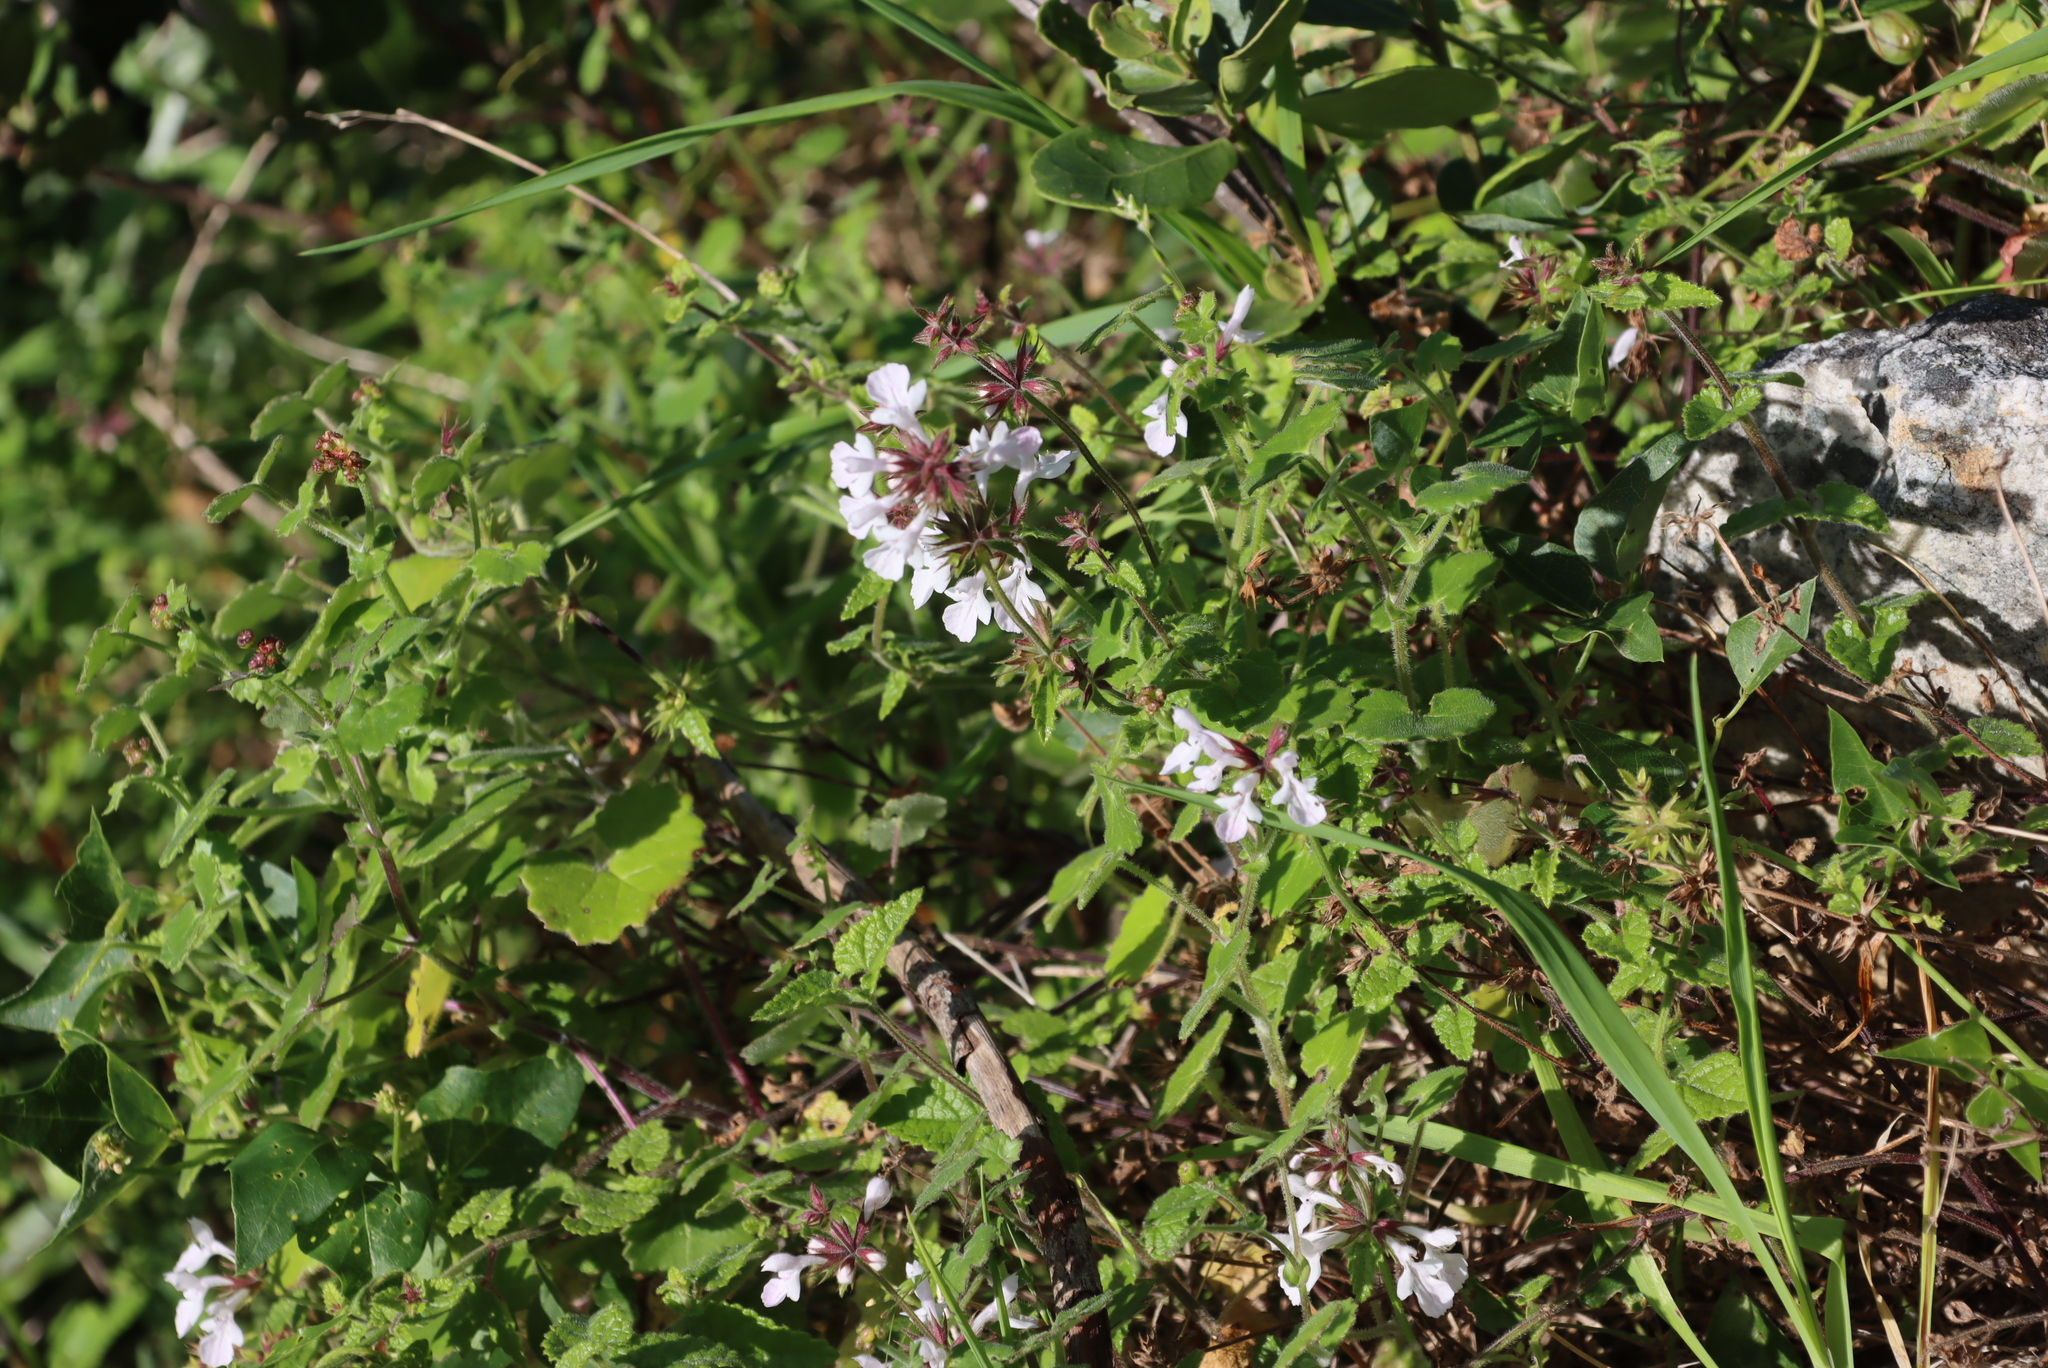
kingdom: Plantae
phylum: Tracheophyta
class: Magnoliopsida
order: Lamiales
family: Lamiaceae
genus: Stachys
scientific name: Stachys aethiopica
